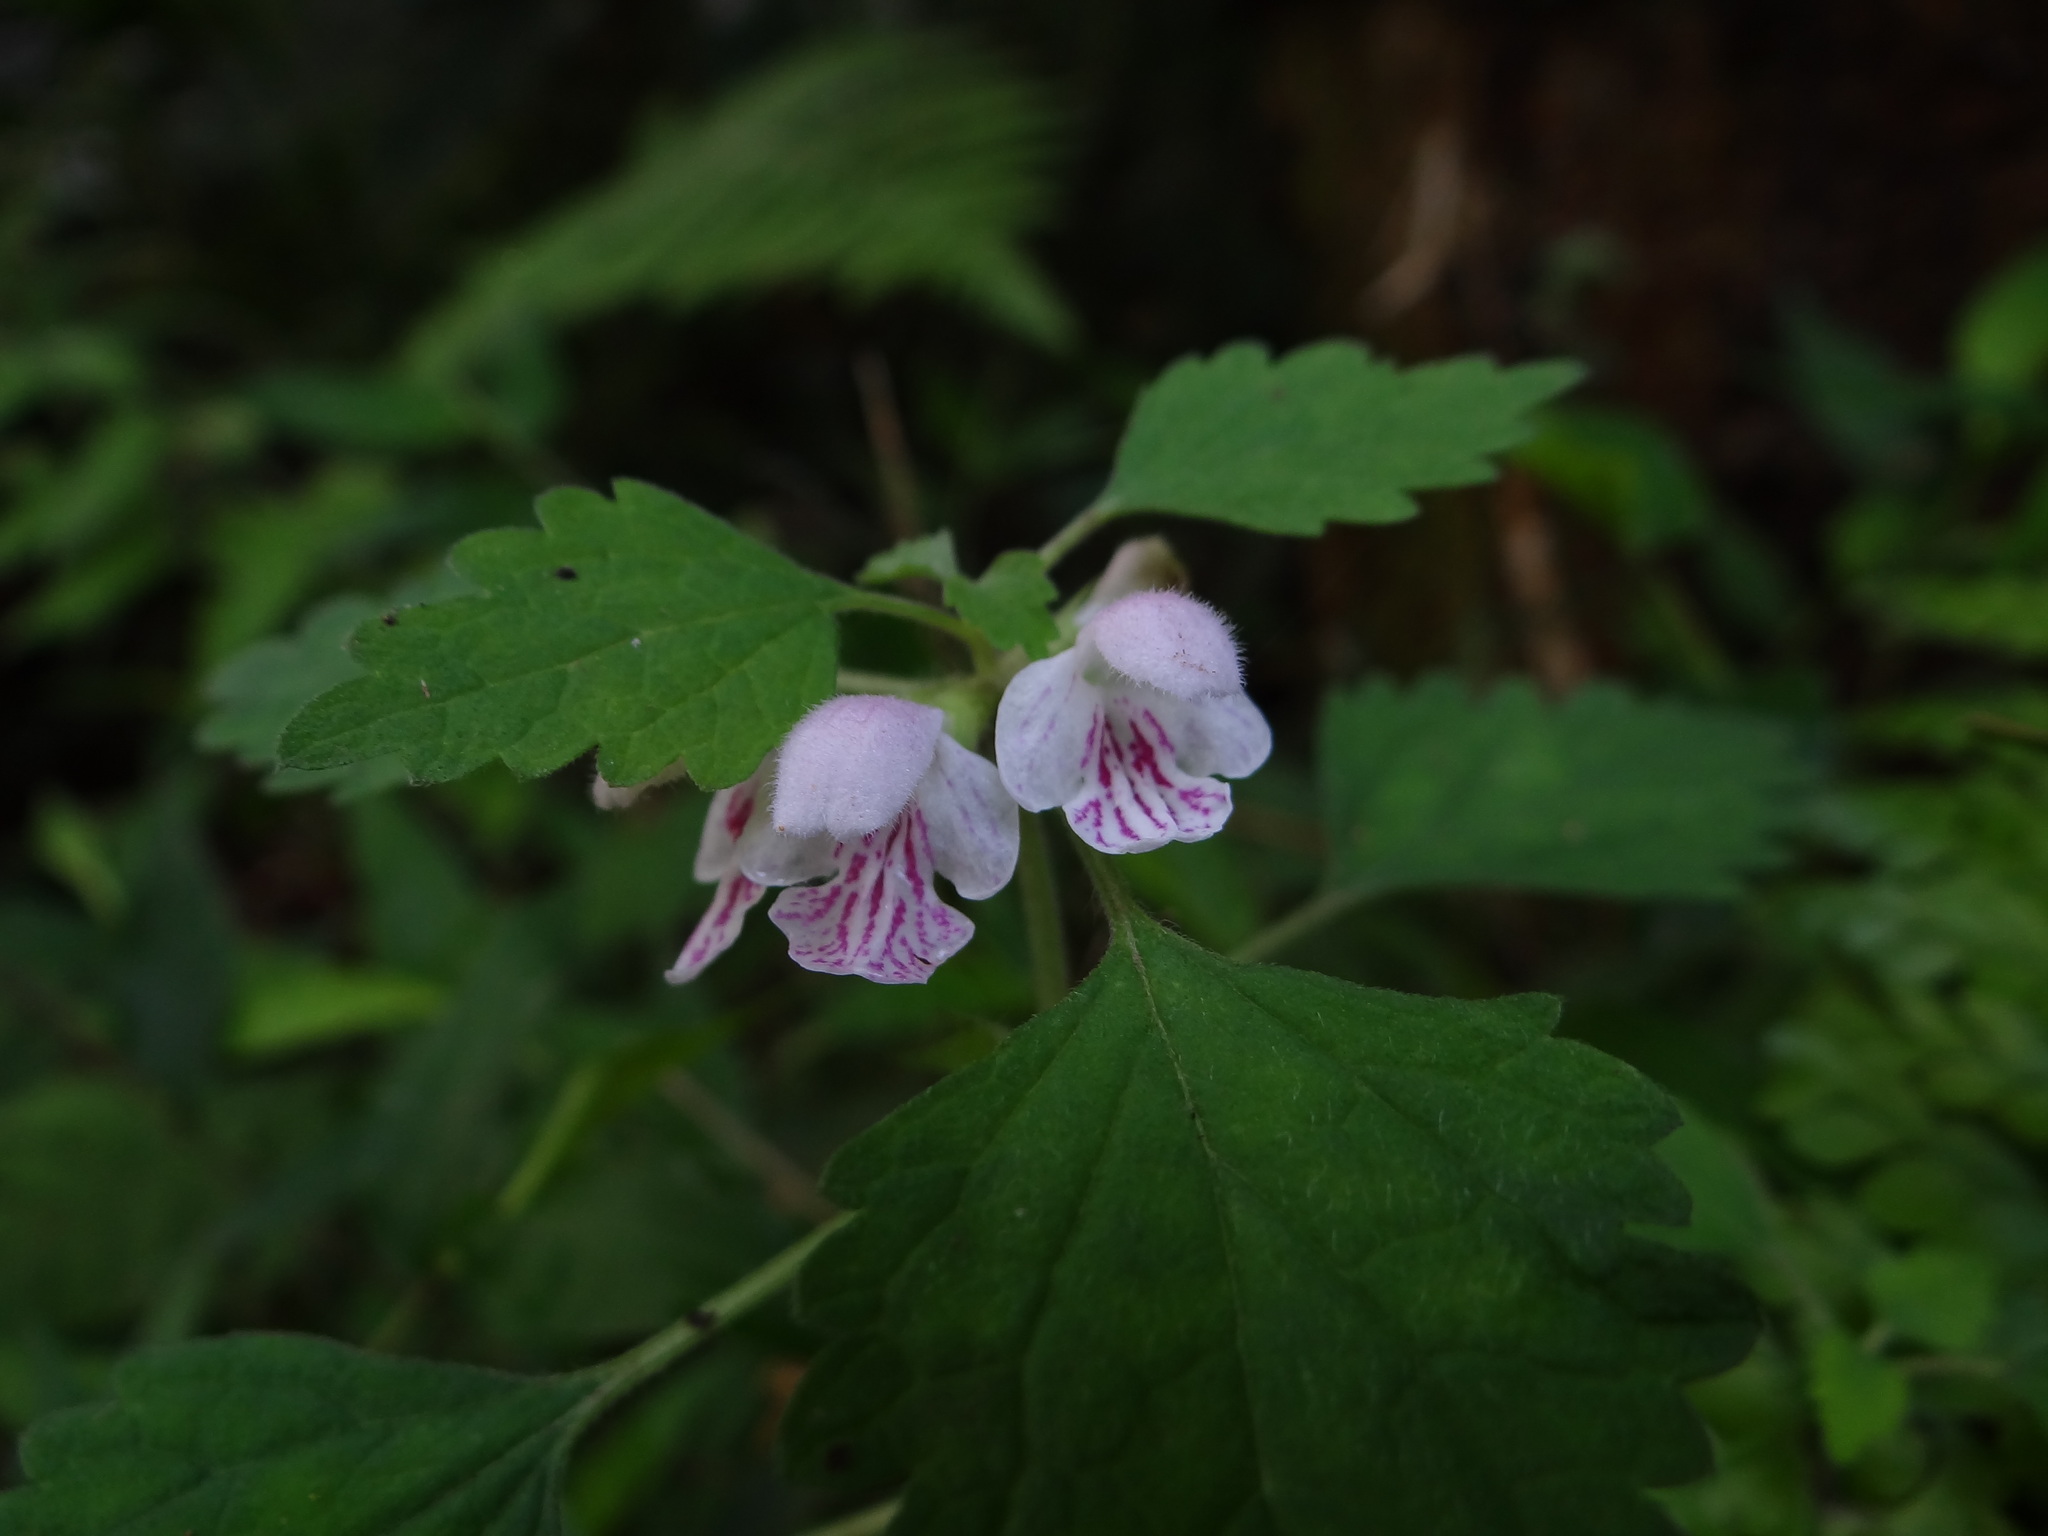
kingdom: Plantae
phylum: Tracheophyta
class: Magnoliopsida
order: Lamiales
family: Lamiaceae
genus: Matsumurella
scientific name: Matsumurella tuberifera
